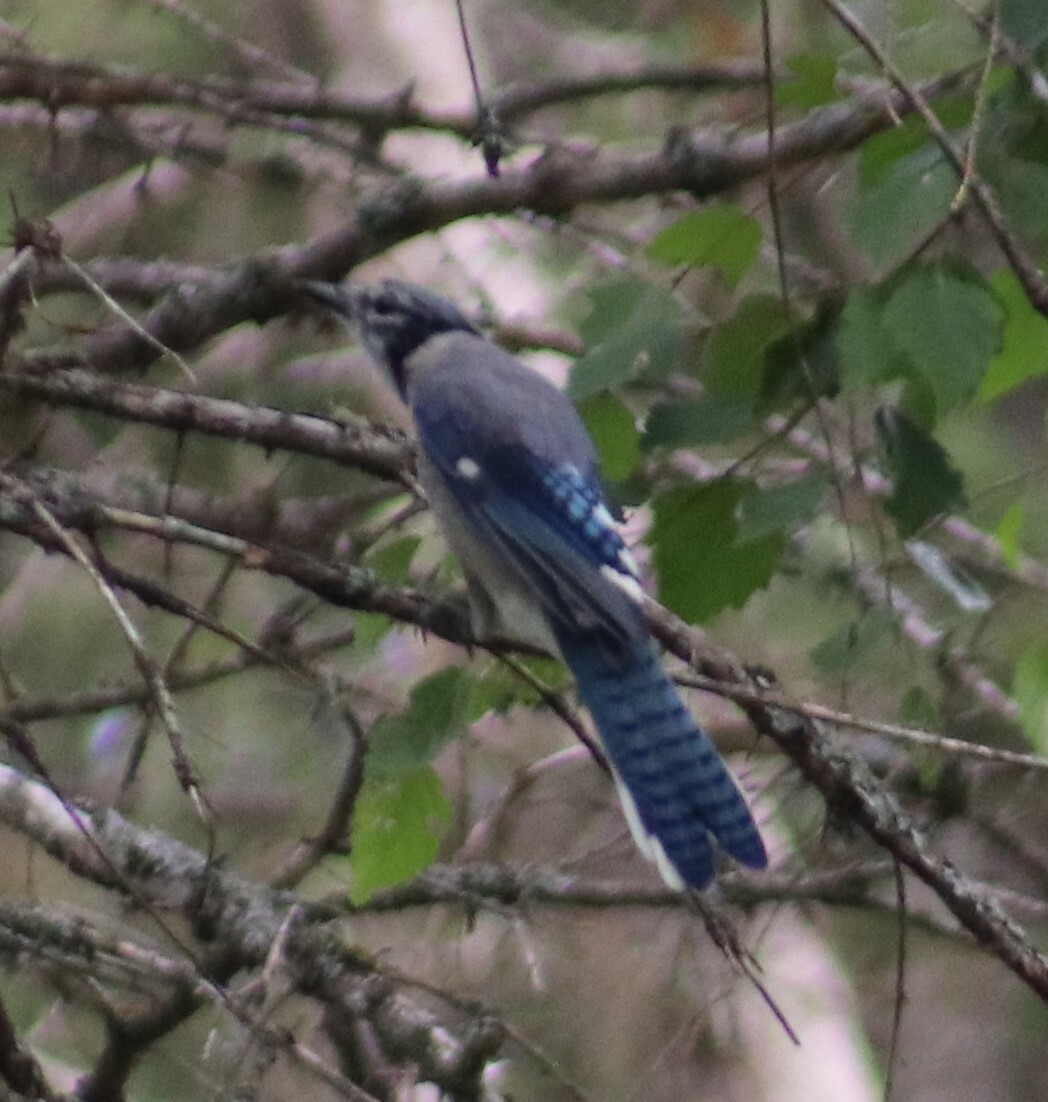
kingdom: Animalia
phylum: Chordata
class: Aves
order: Passeriformes
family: Corvidae
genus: Cyanocitta
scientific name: Cyanocitta cristata
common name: Blue jay
